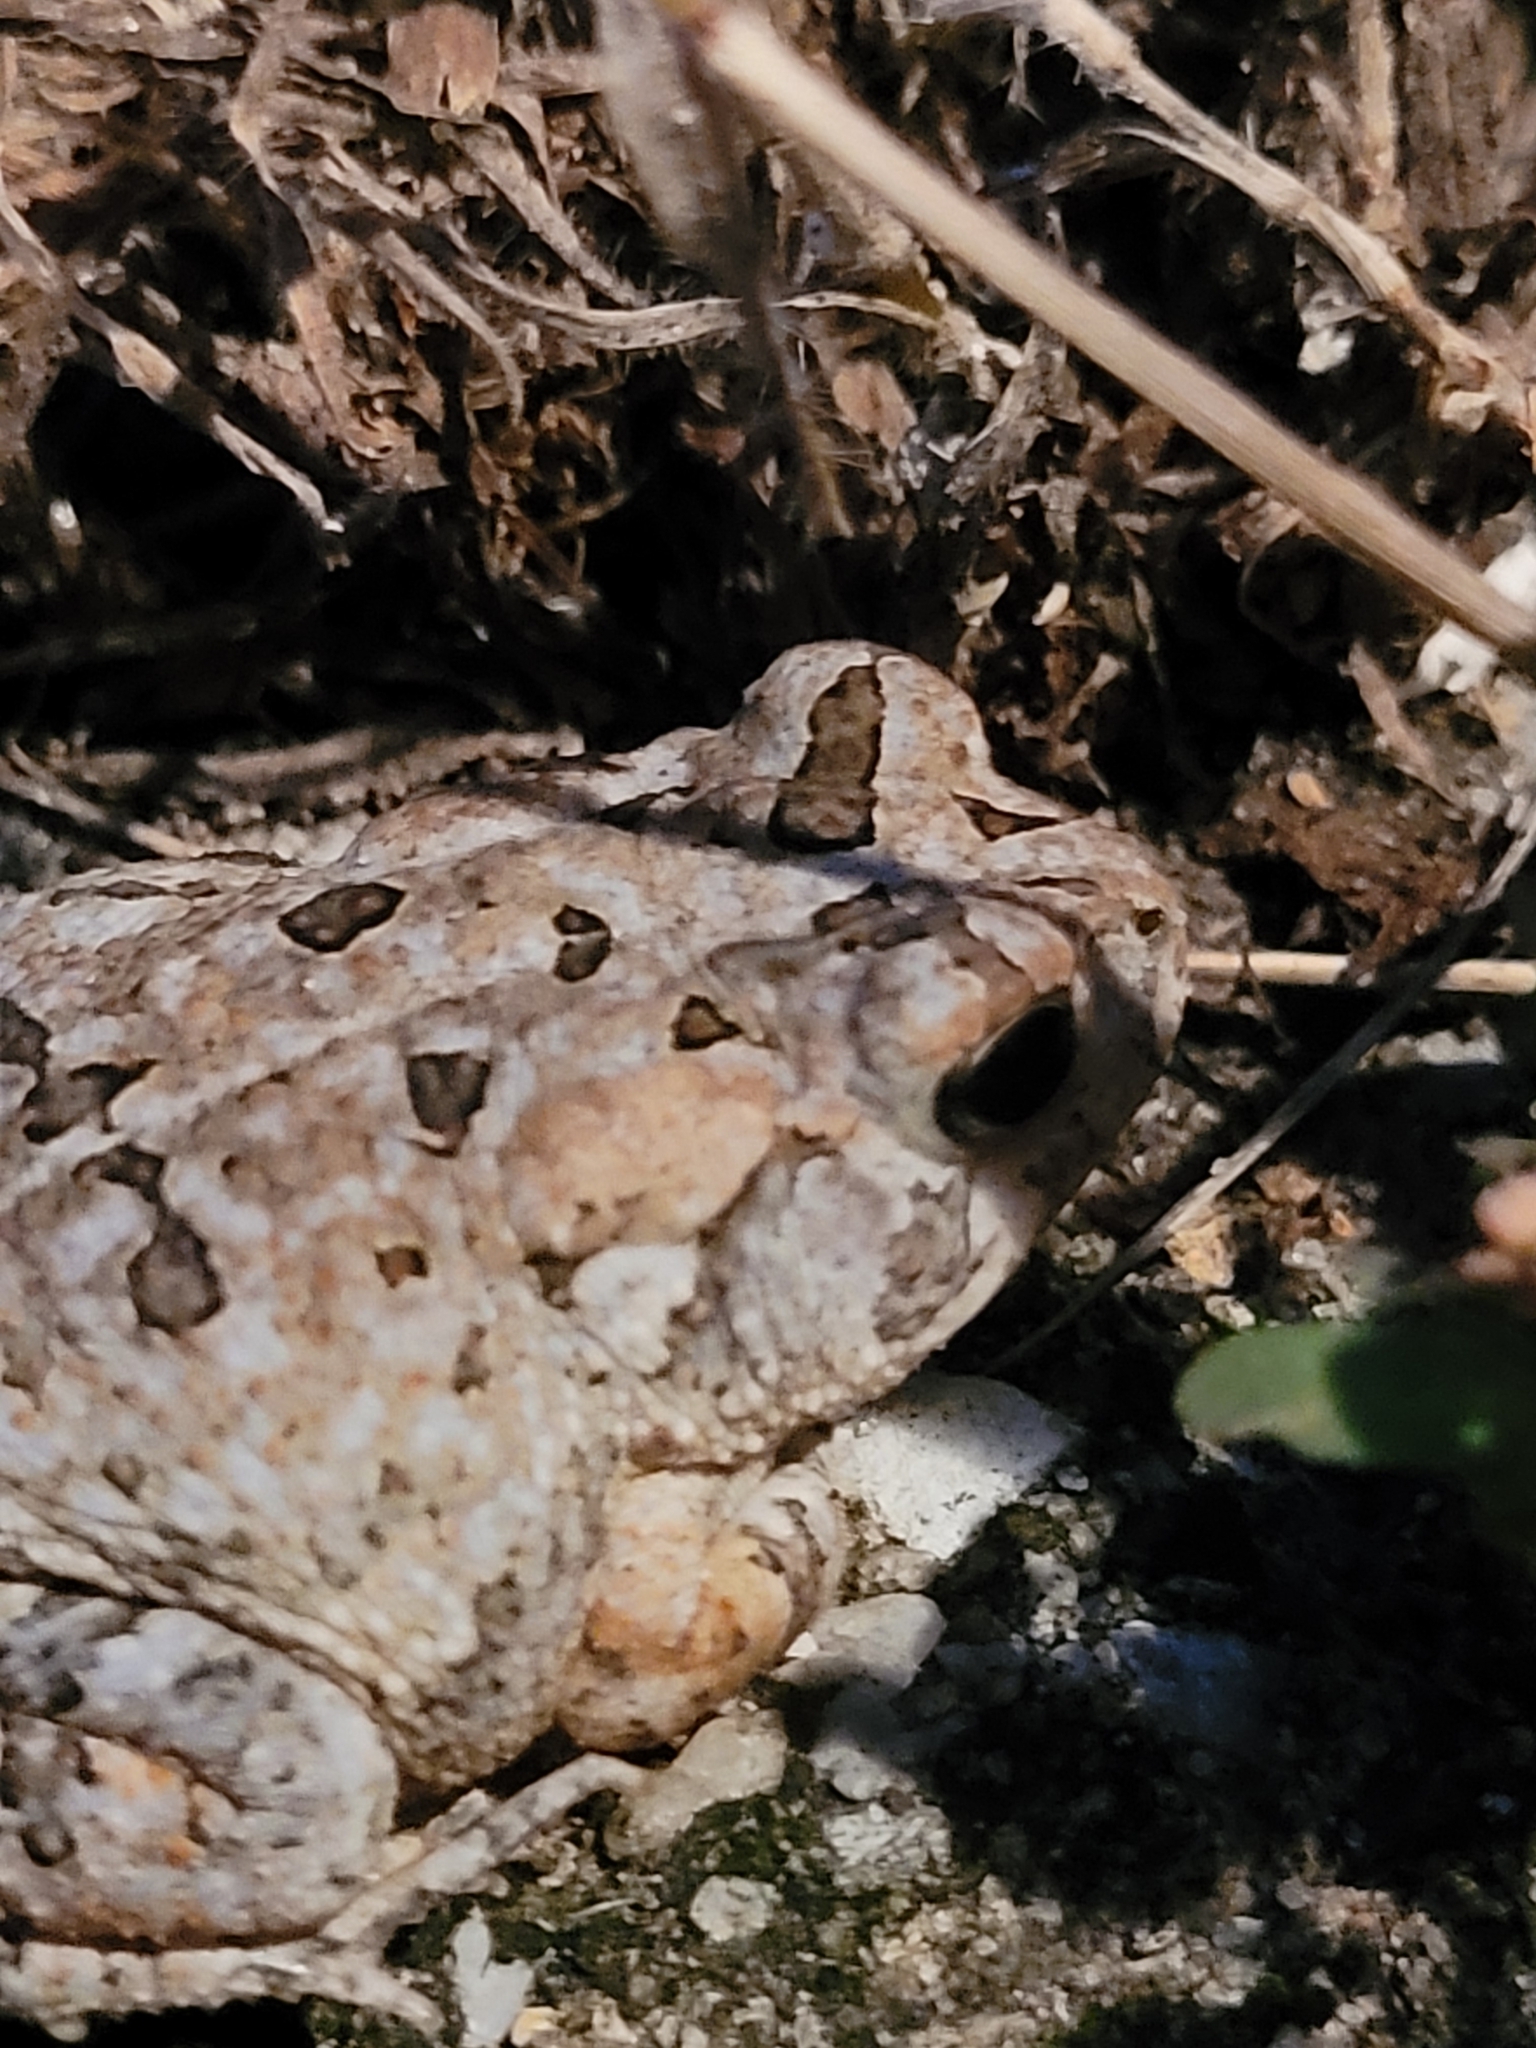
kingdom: Animalia
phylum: Chordata
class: Amphibia
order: Anura
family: Bufonidae
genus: Anaxyrus
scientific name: Anaxyrus terrestris
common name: Southern toad
